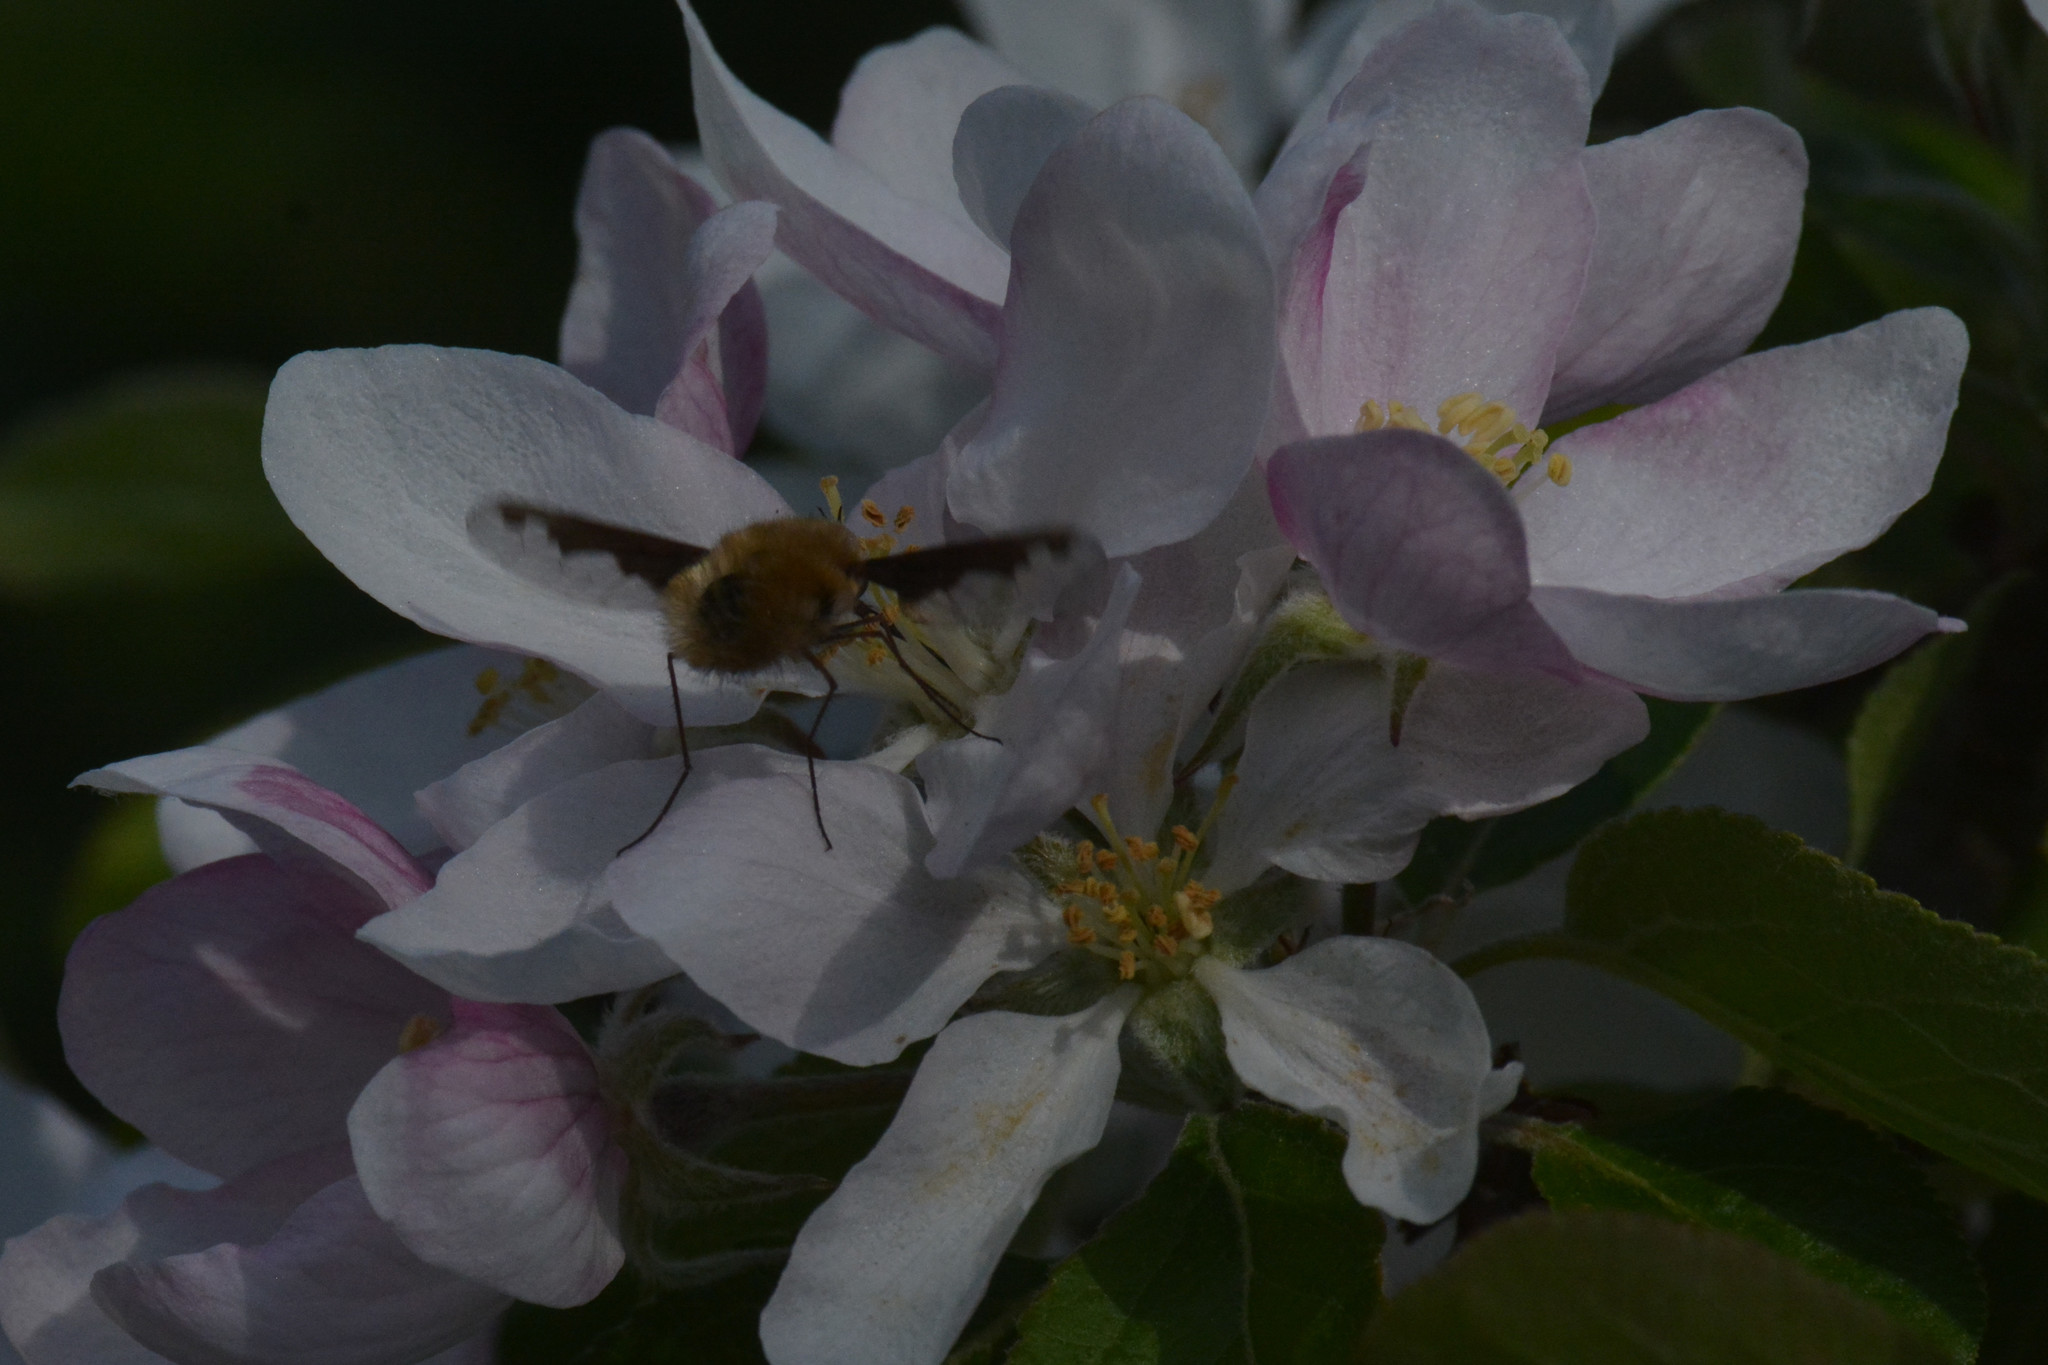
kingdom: Animalia
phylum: Arthropoda
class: Insecta
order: Diptera
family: Bombyliidae
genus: Bombylius
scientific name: Bombylius major
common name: Bee fly
